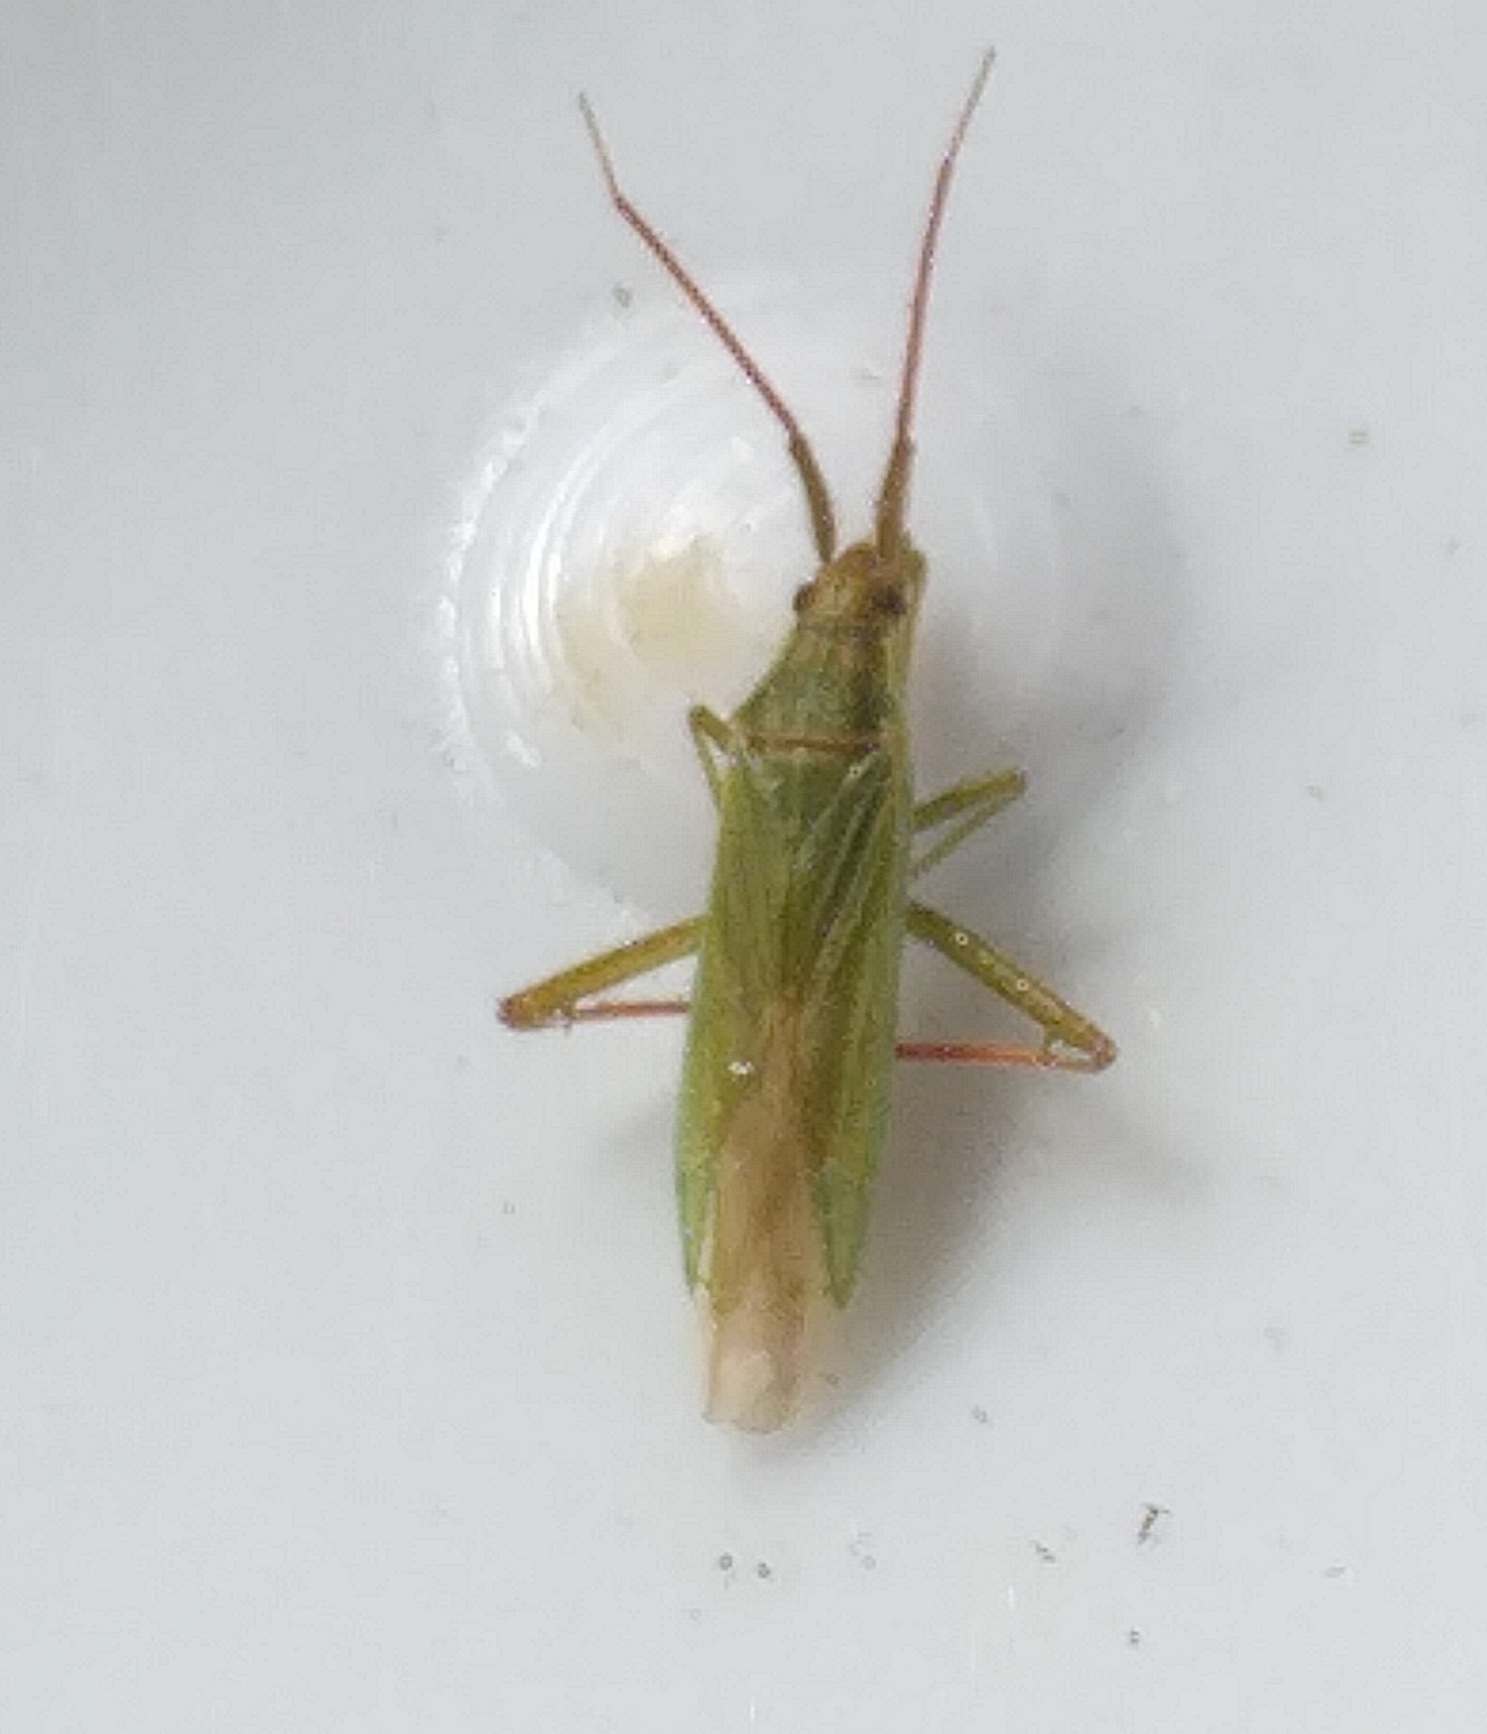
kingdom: Animalia
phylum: Arthropoda
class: Insecta
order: Hemiptera
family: Miridae
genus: Stenodema
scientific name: Stenodema calcarata
